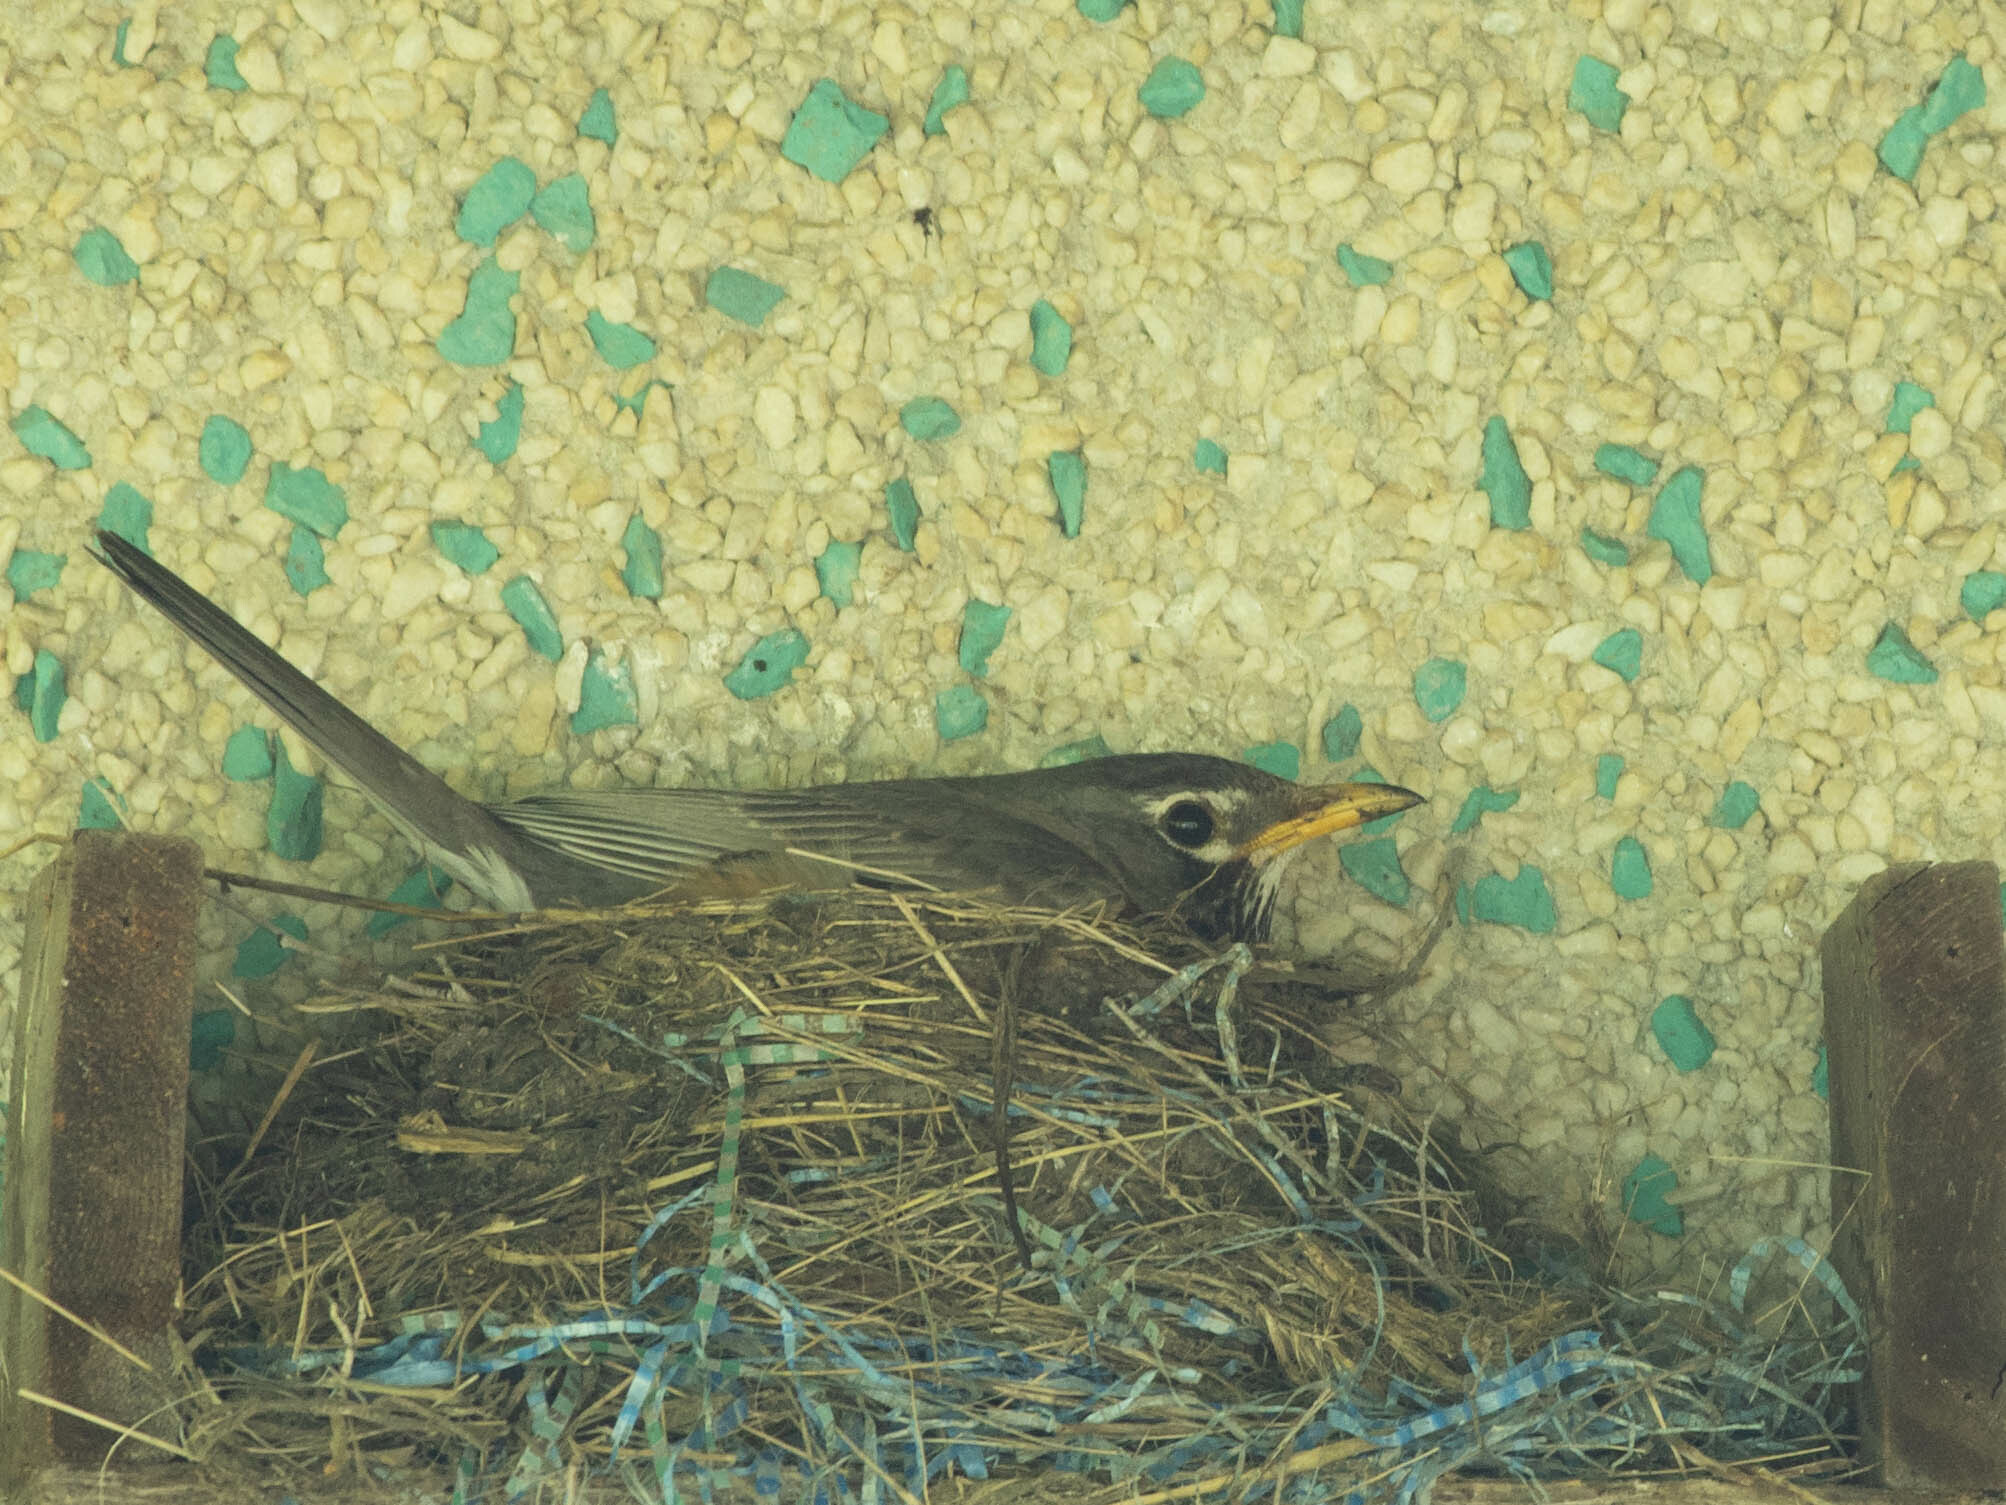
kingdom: Animalia
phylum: Chordata
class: Aves
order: Passeriformes
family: Turdidae
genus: Turdus
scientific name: Turdus migratorius
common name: American robin
